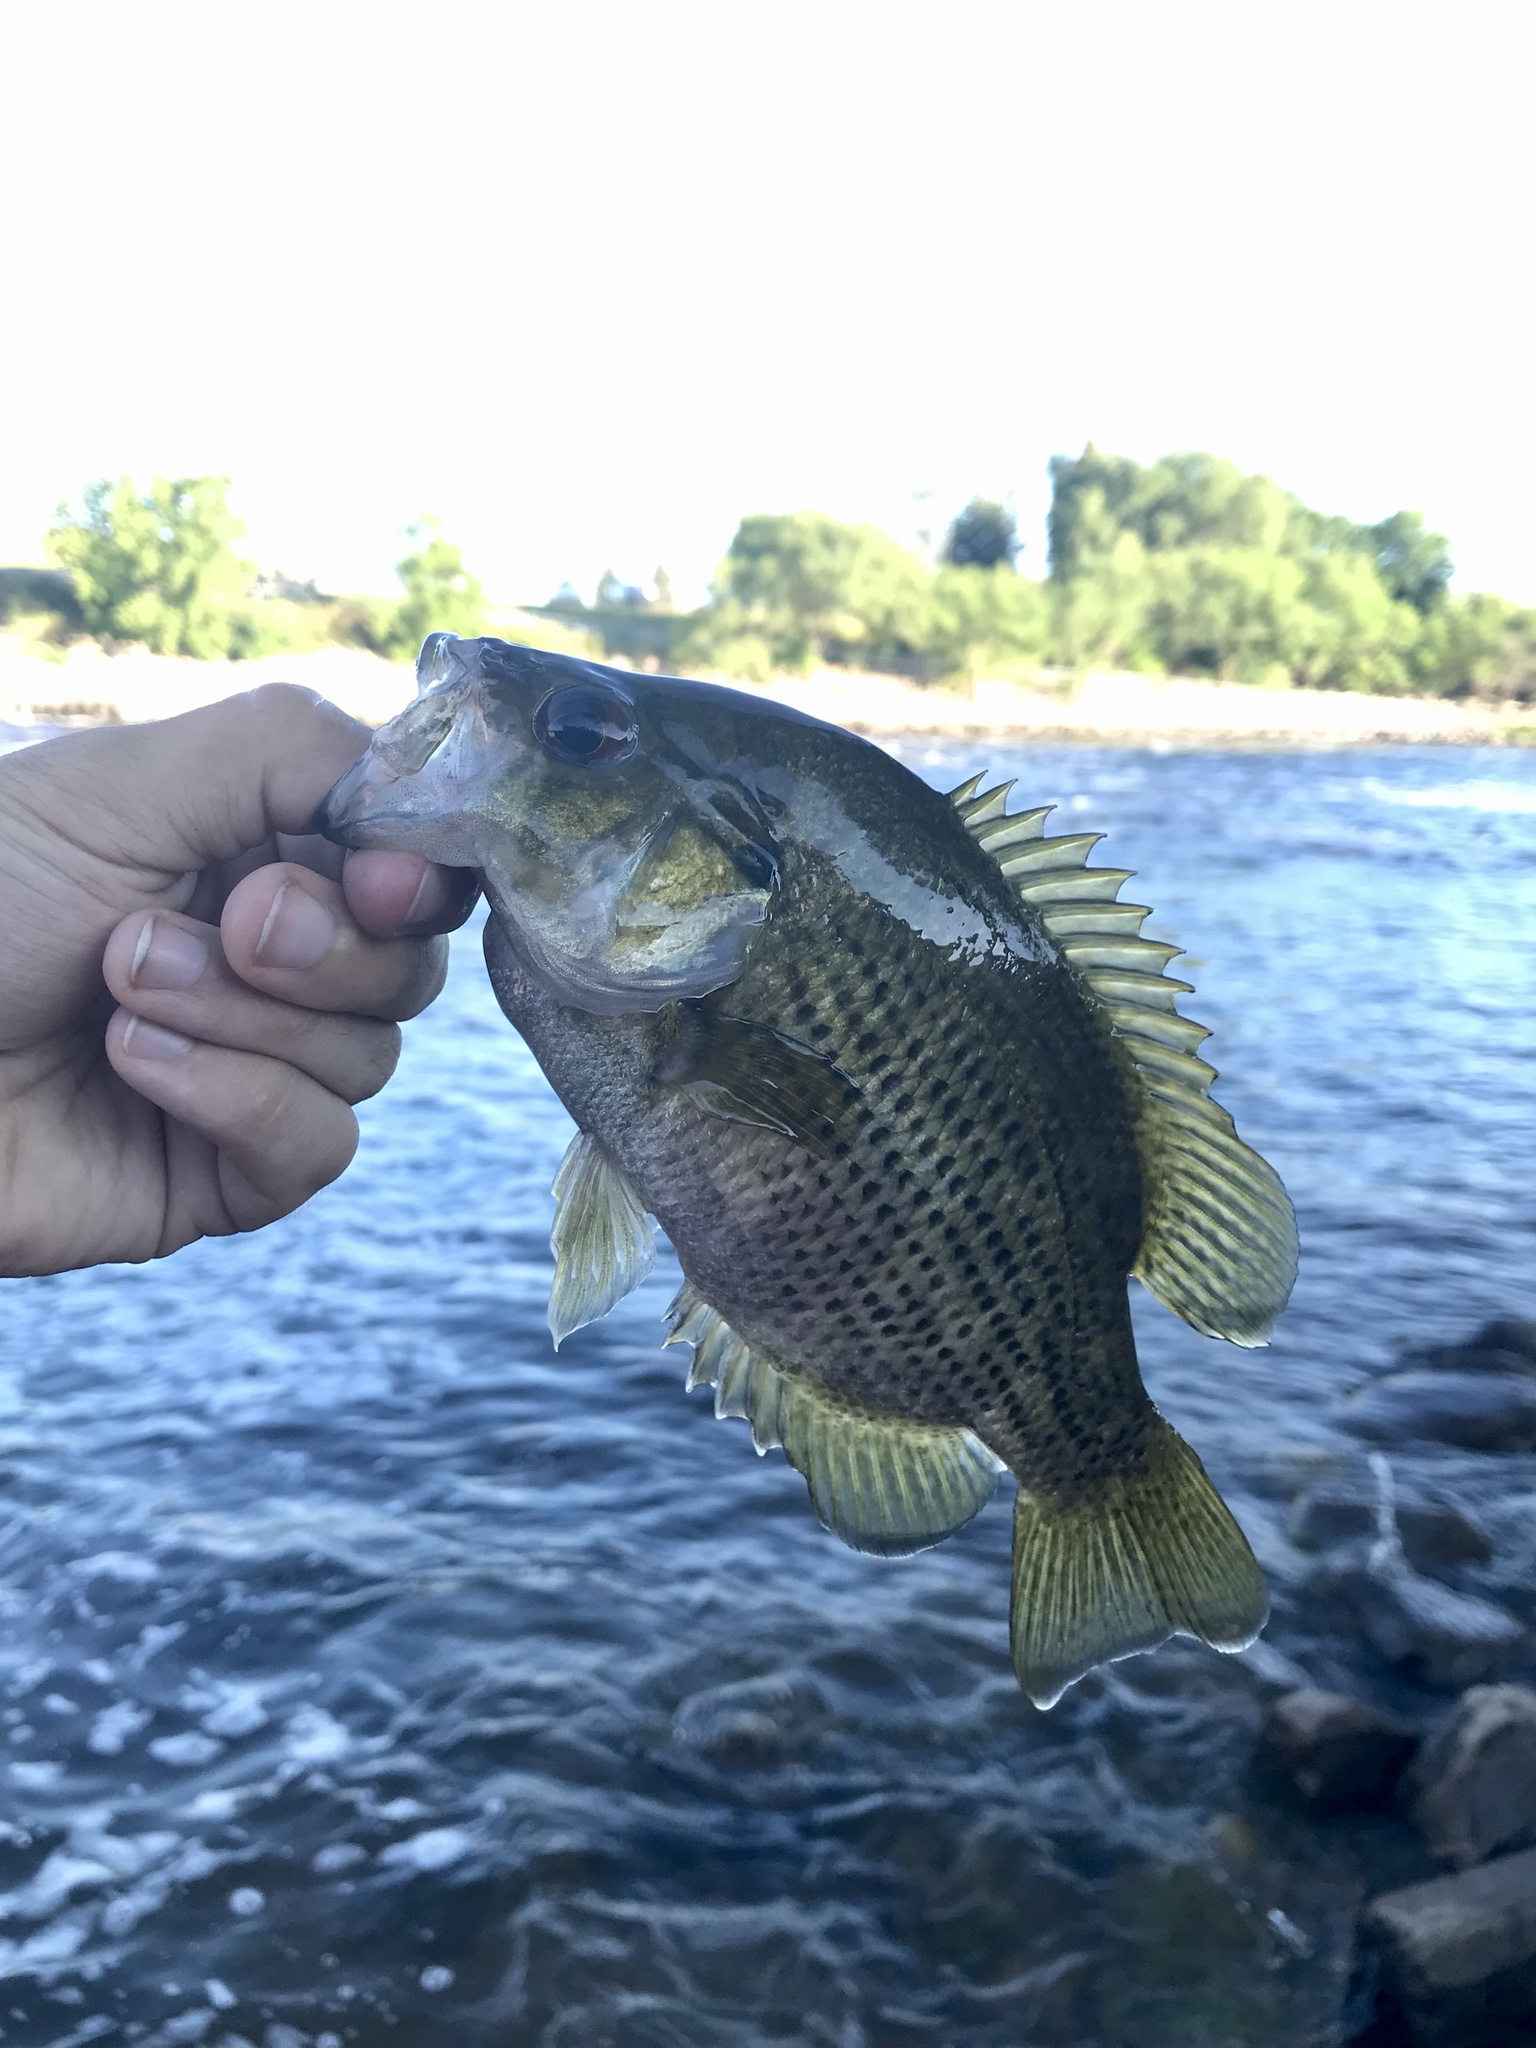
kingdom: Animalia
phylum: Chordata
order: Perciformes
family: Centrarchidae
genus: Ambloplites
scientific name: Ambloplites rupestris
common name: Rock bass
